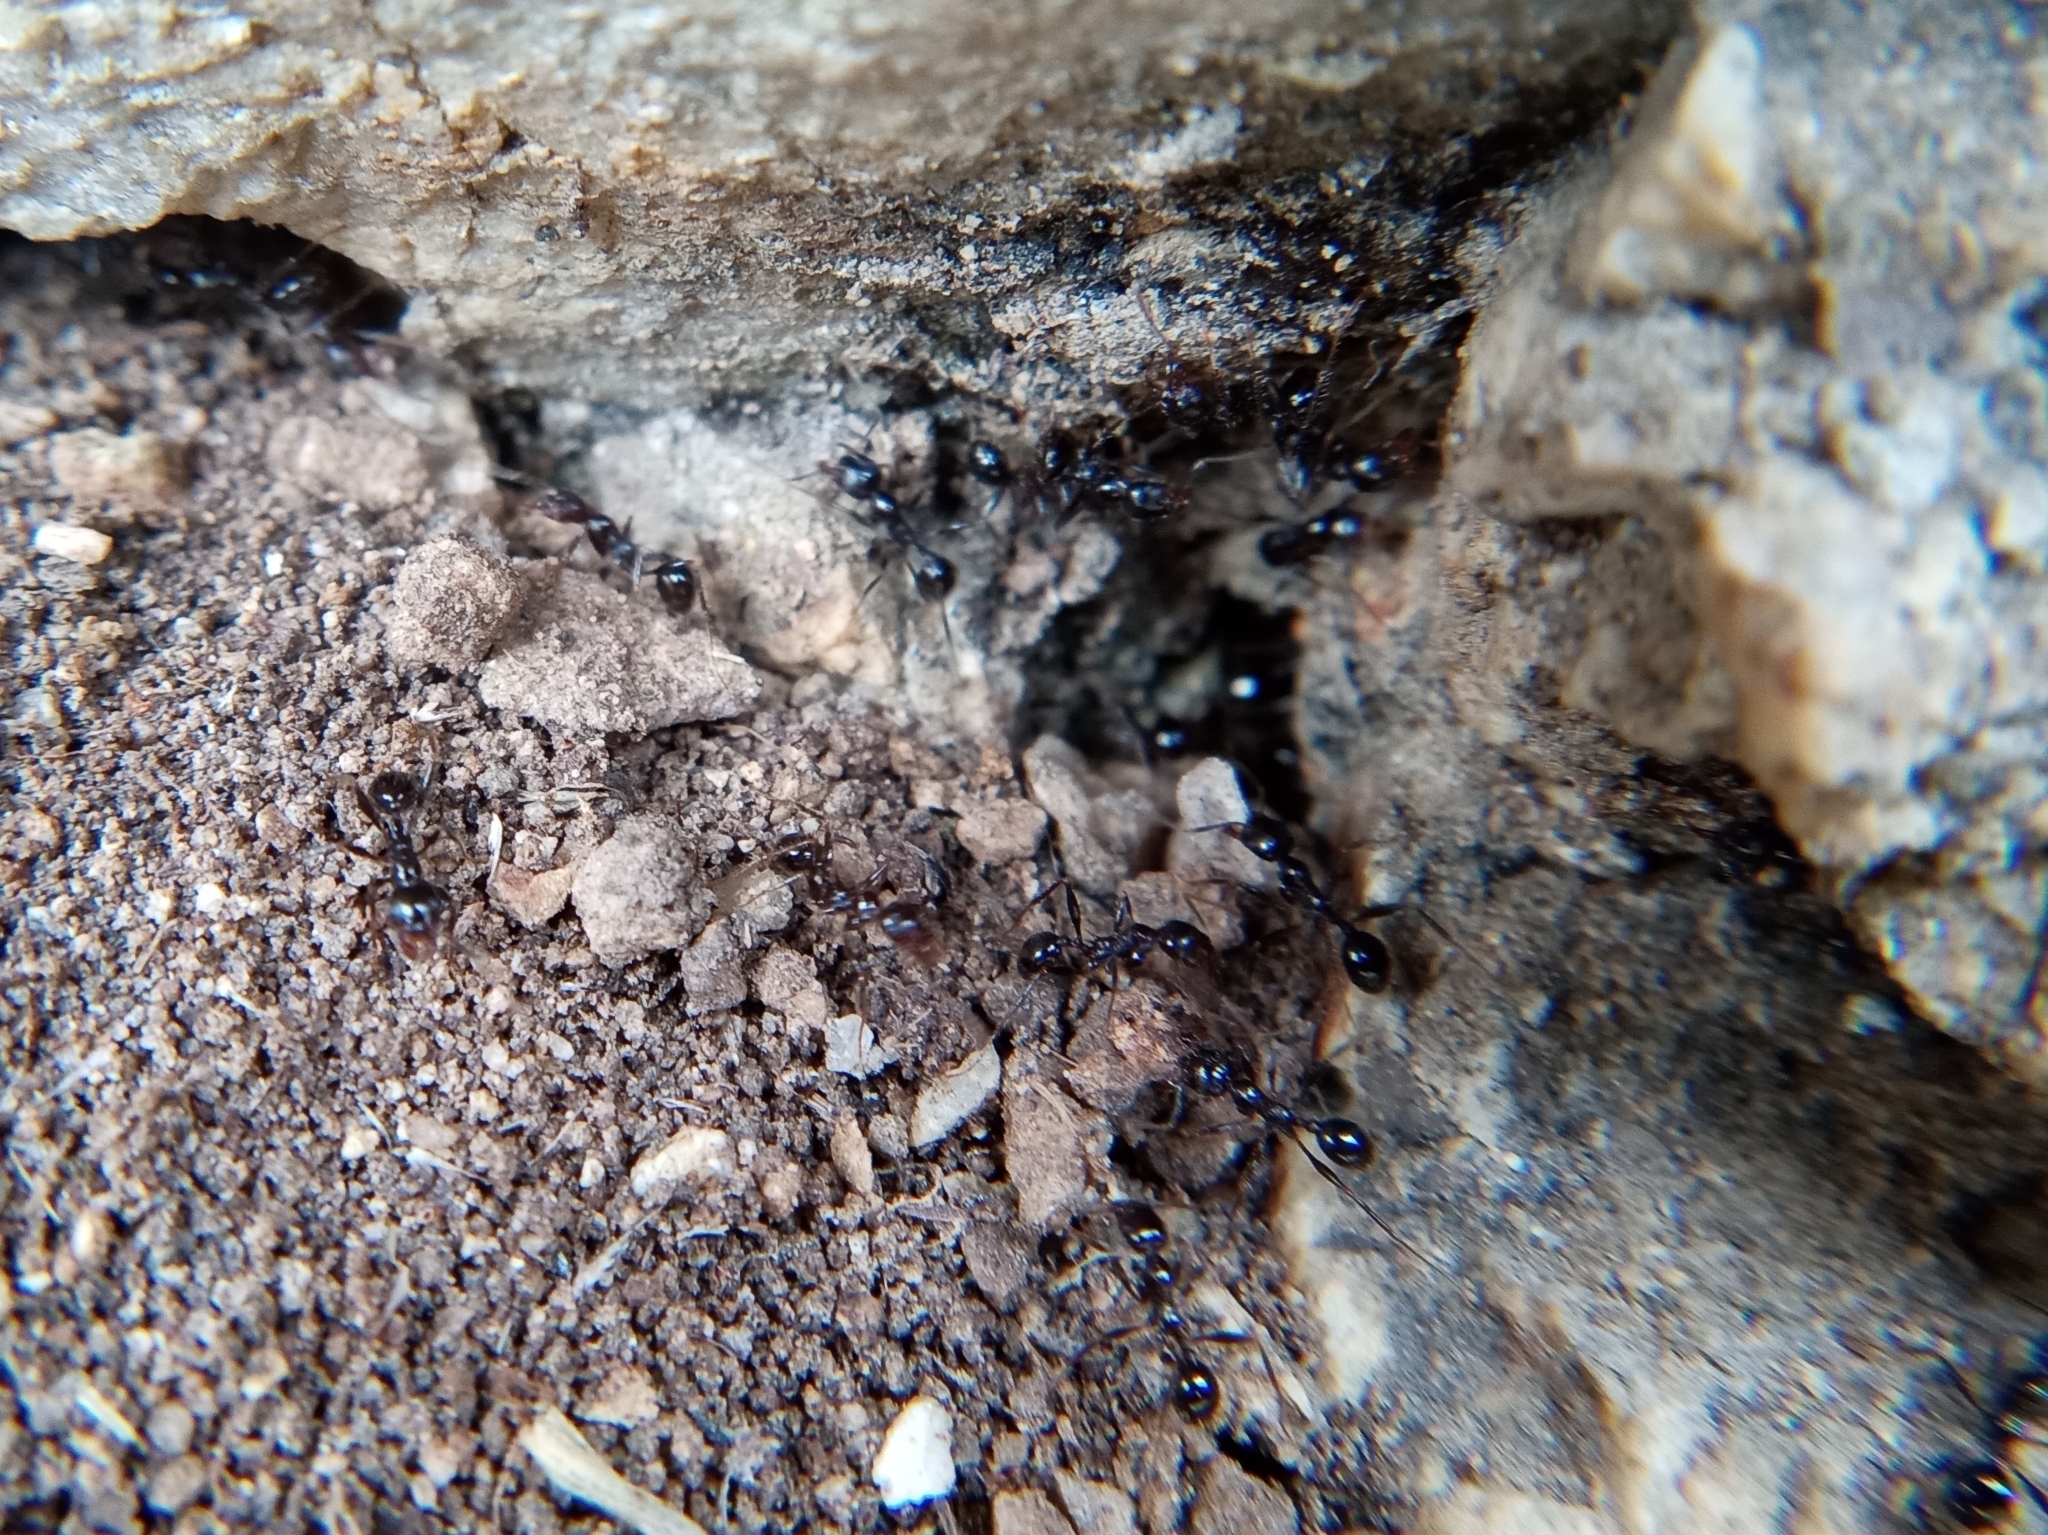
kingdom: Animalia
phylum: Arthropoda
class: Insecta
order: Hymenoptera
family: Formicidae
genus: Pheidole
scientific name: Pheidole rhea
